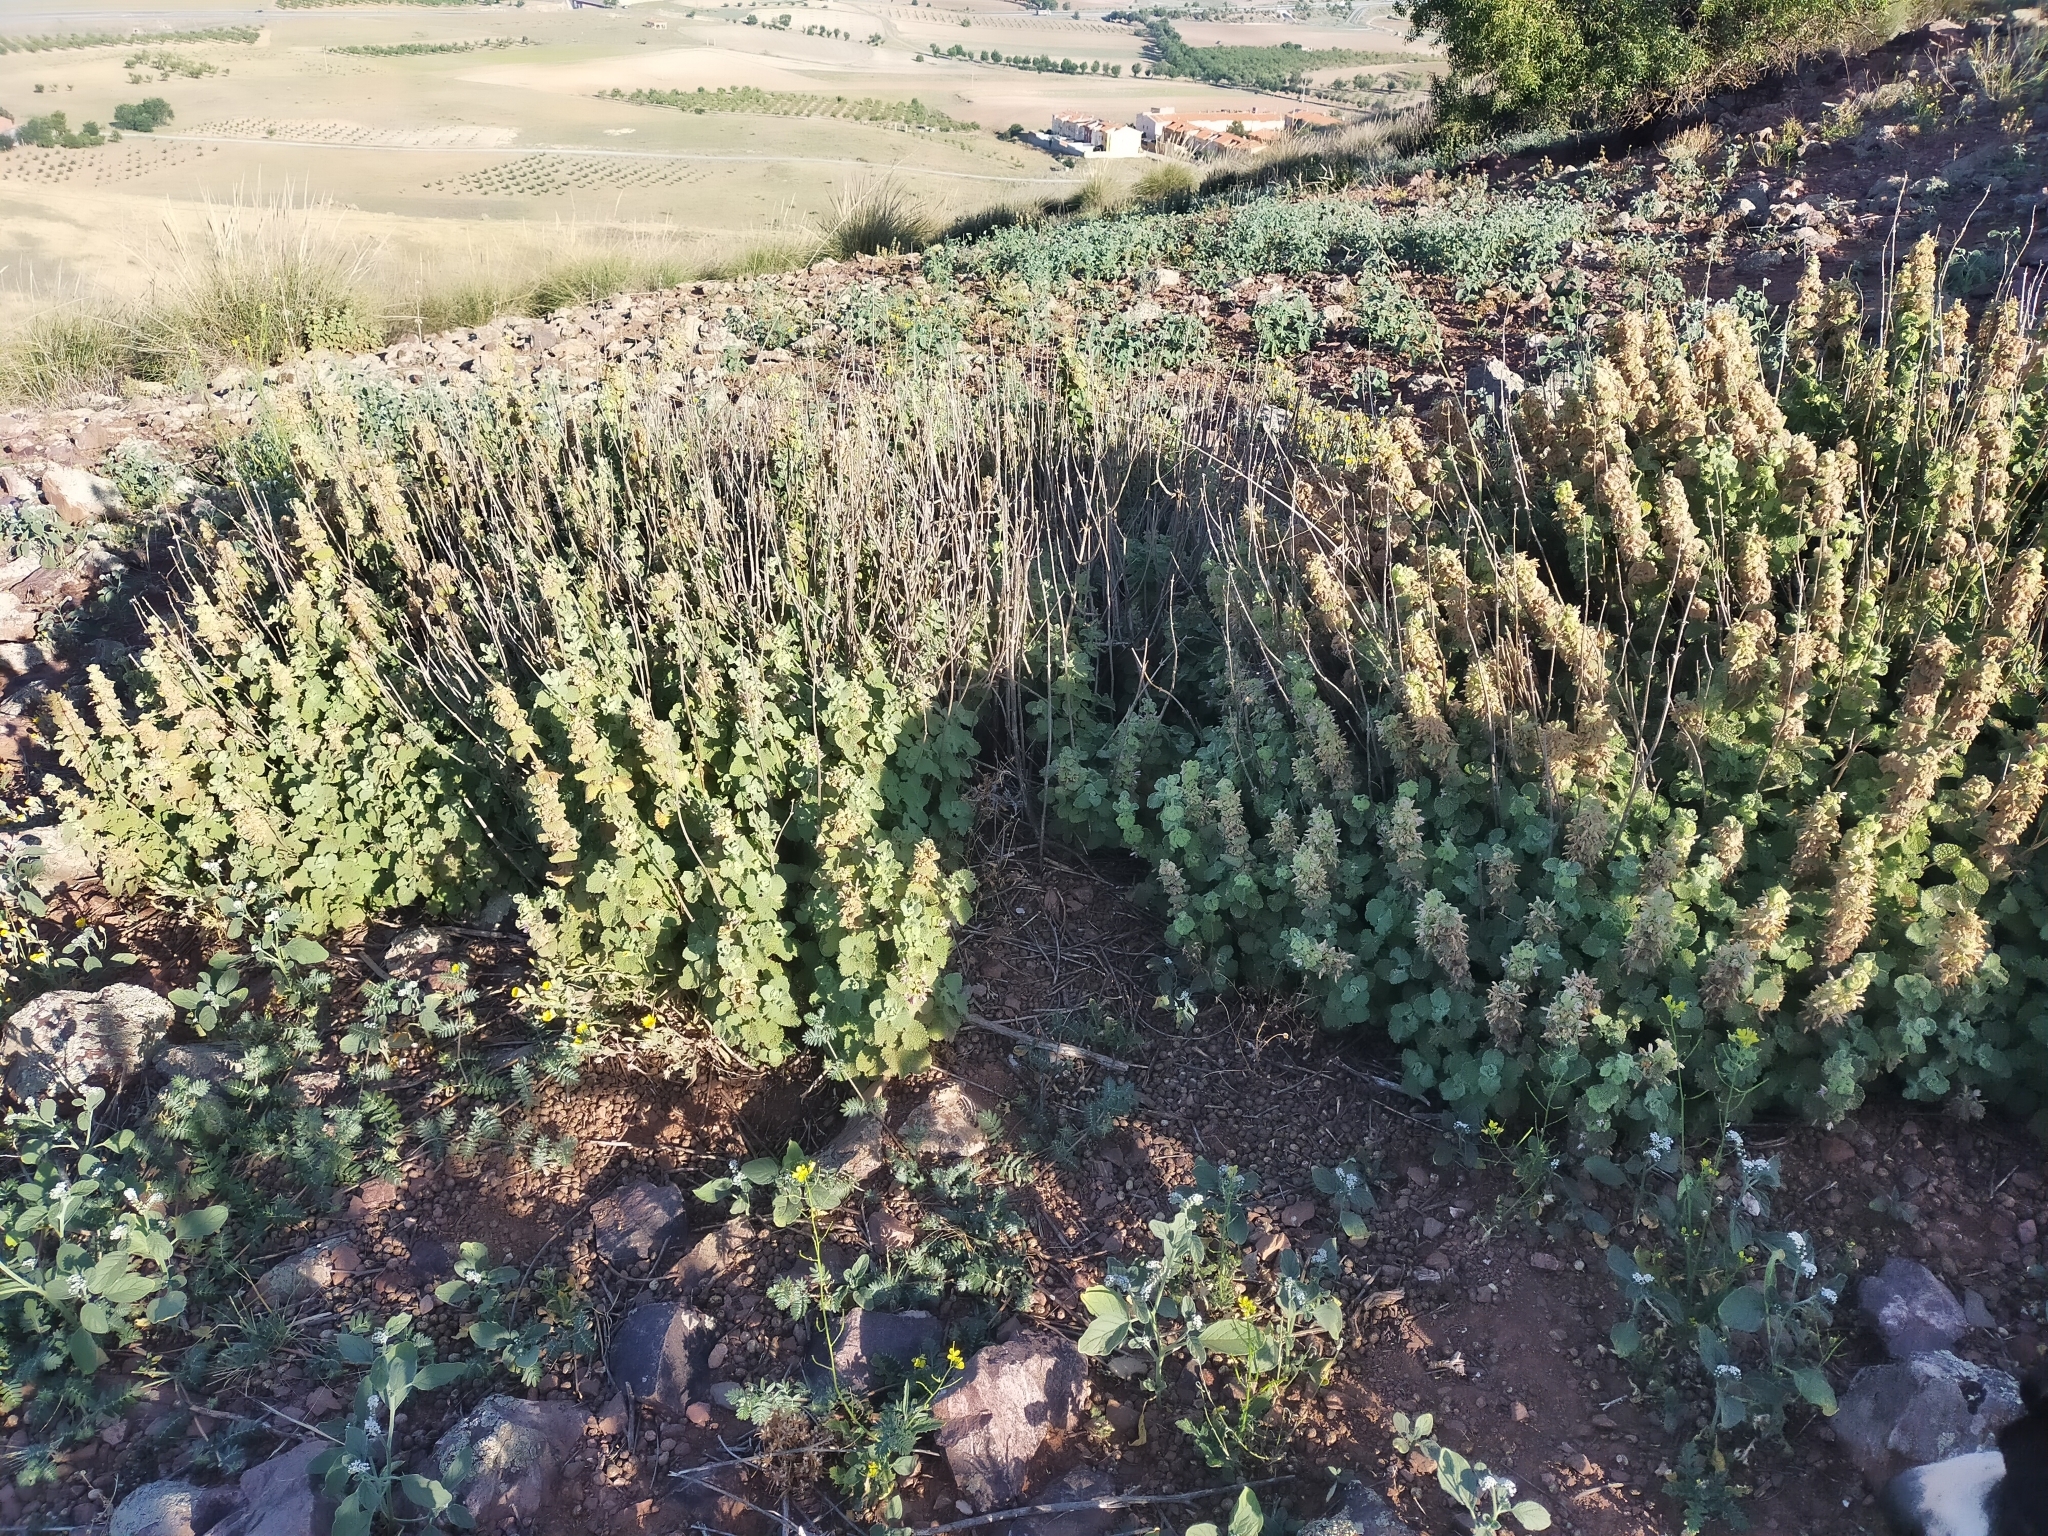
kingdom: Plantae
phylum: Tracheophyta
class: Magnoliopsida
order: Lamiales
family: Lamiaceae
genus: Pseudodictamnus
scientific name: Pseudodictamnus hirsutus
